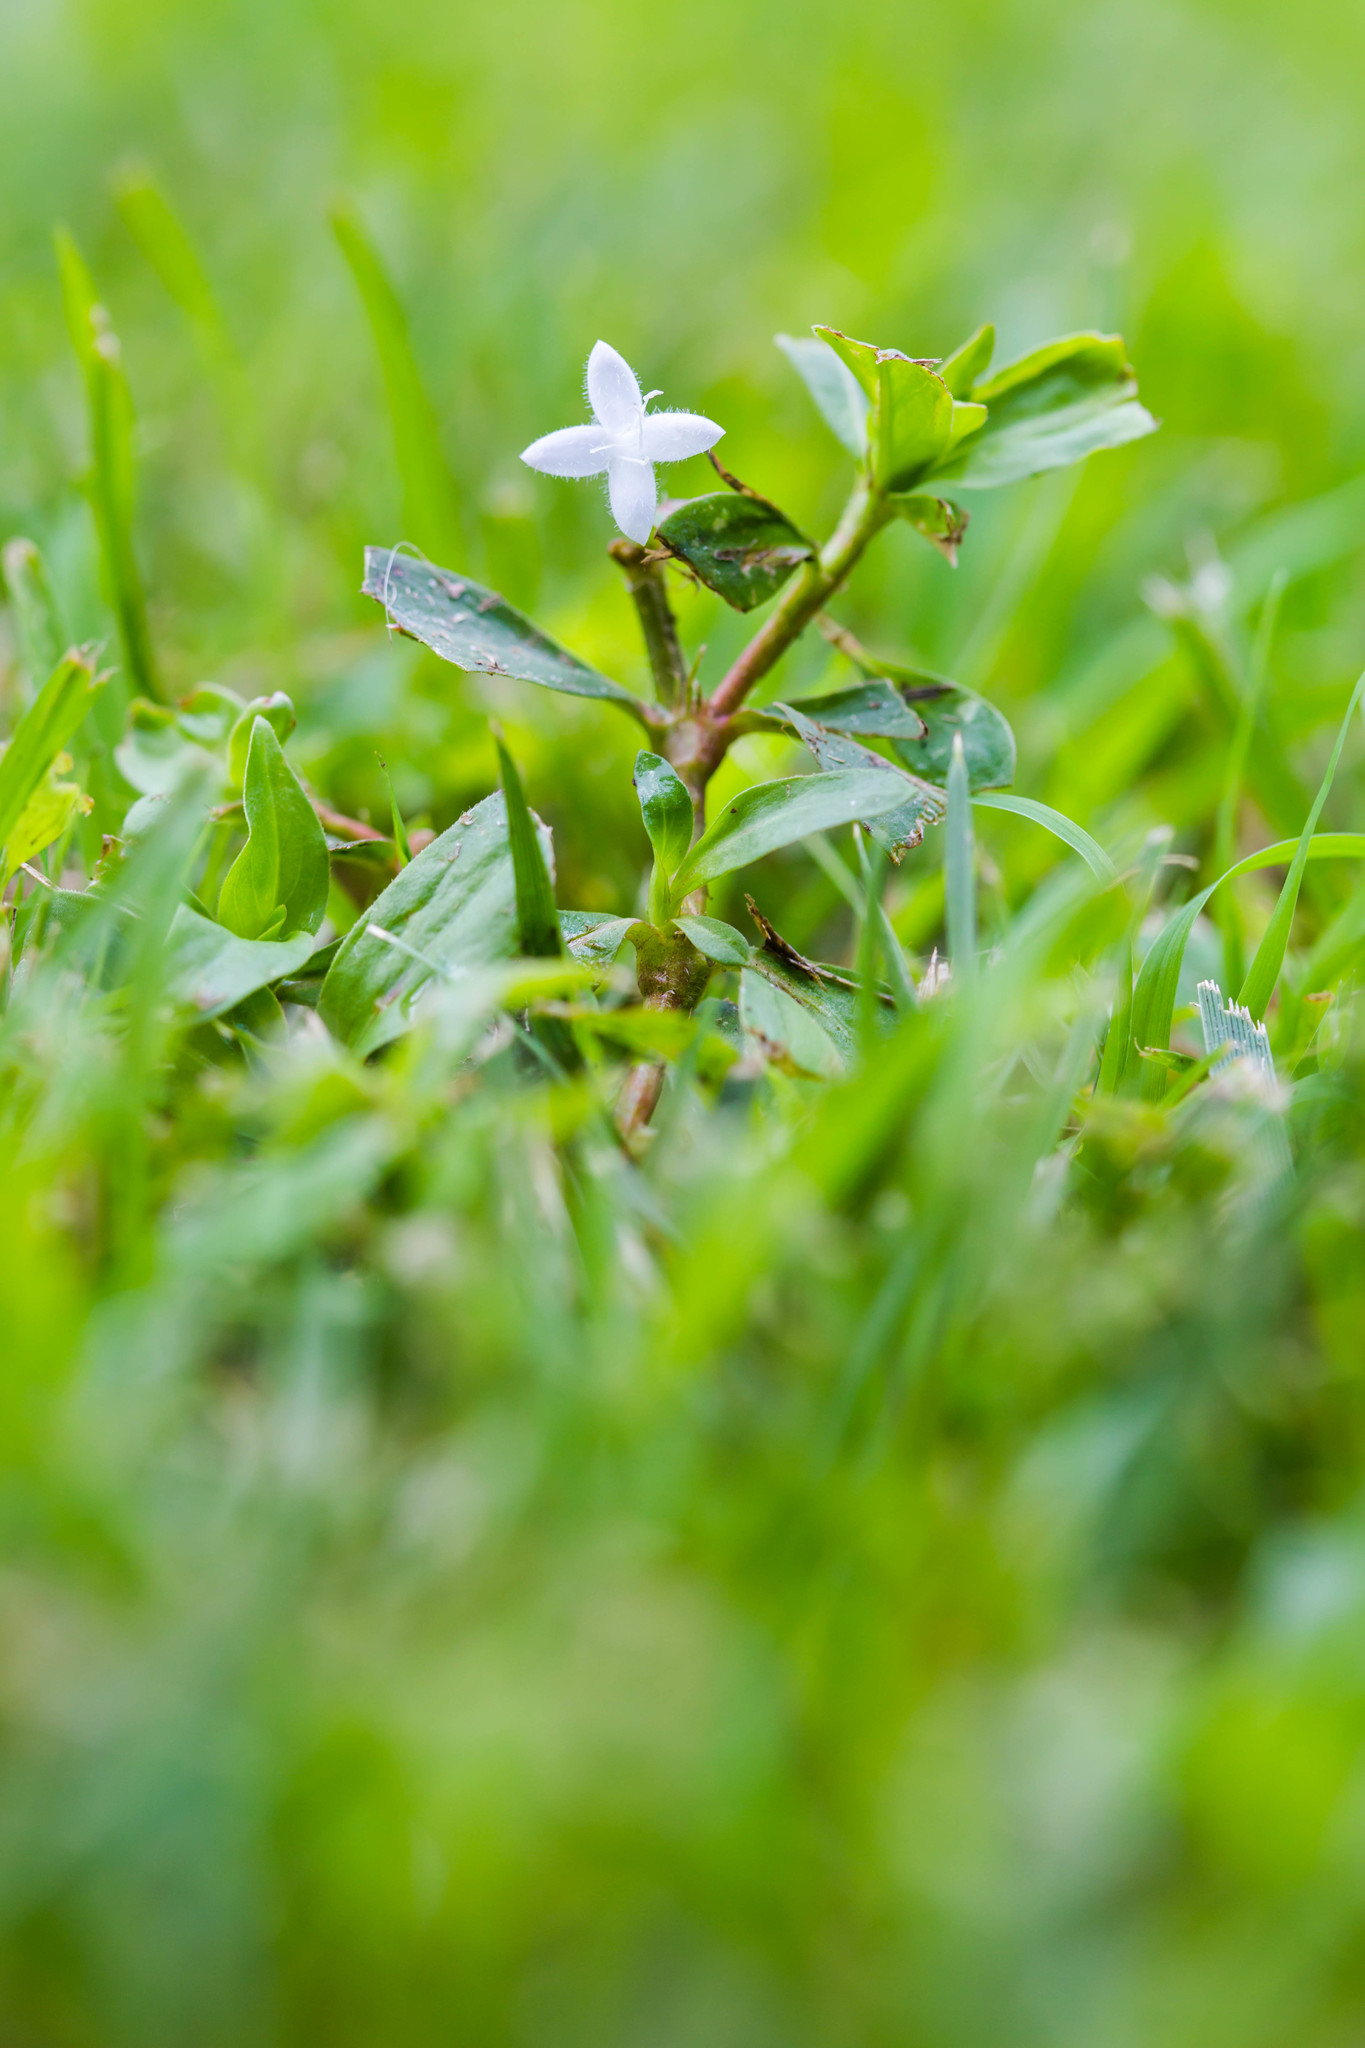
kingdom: Plantae
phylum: Tracheophyta
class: Magnoliopsida
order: Gentianales
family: Rubiaceae
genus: Diodia
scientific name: Diodia virginiana
